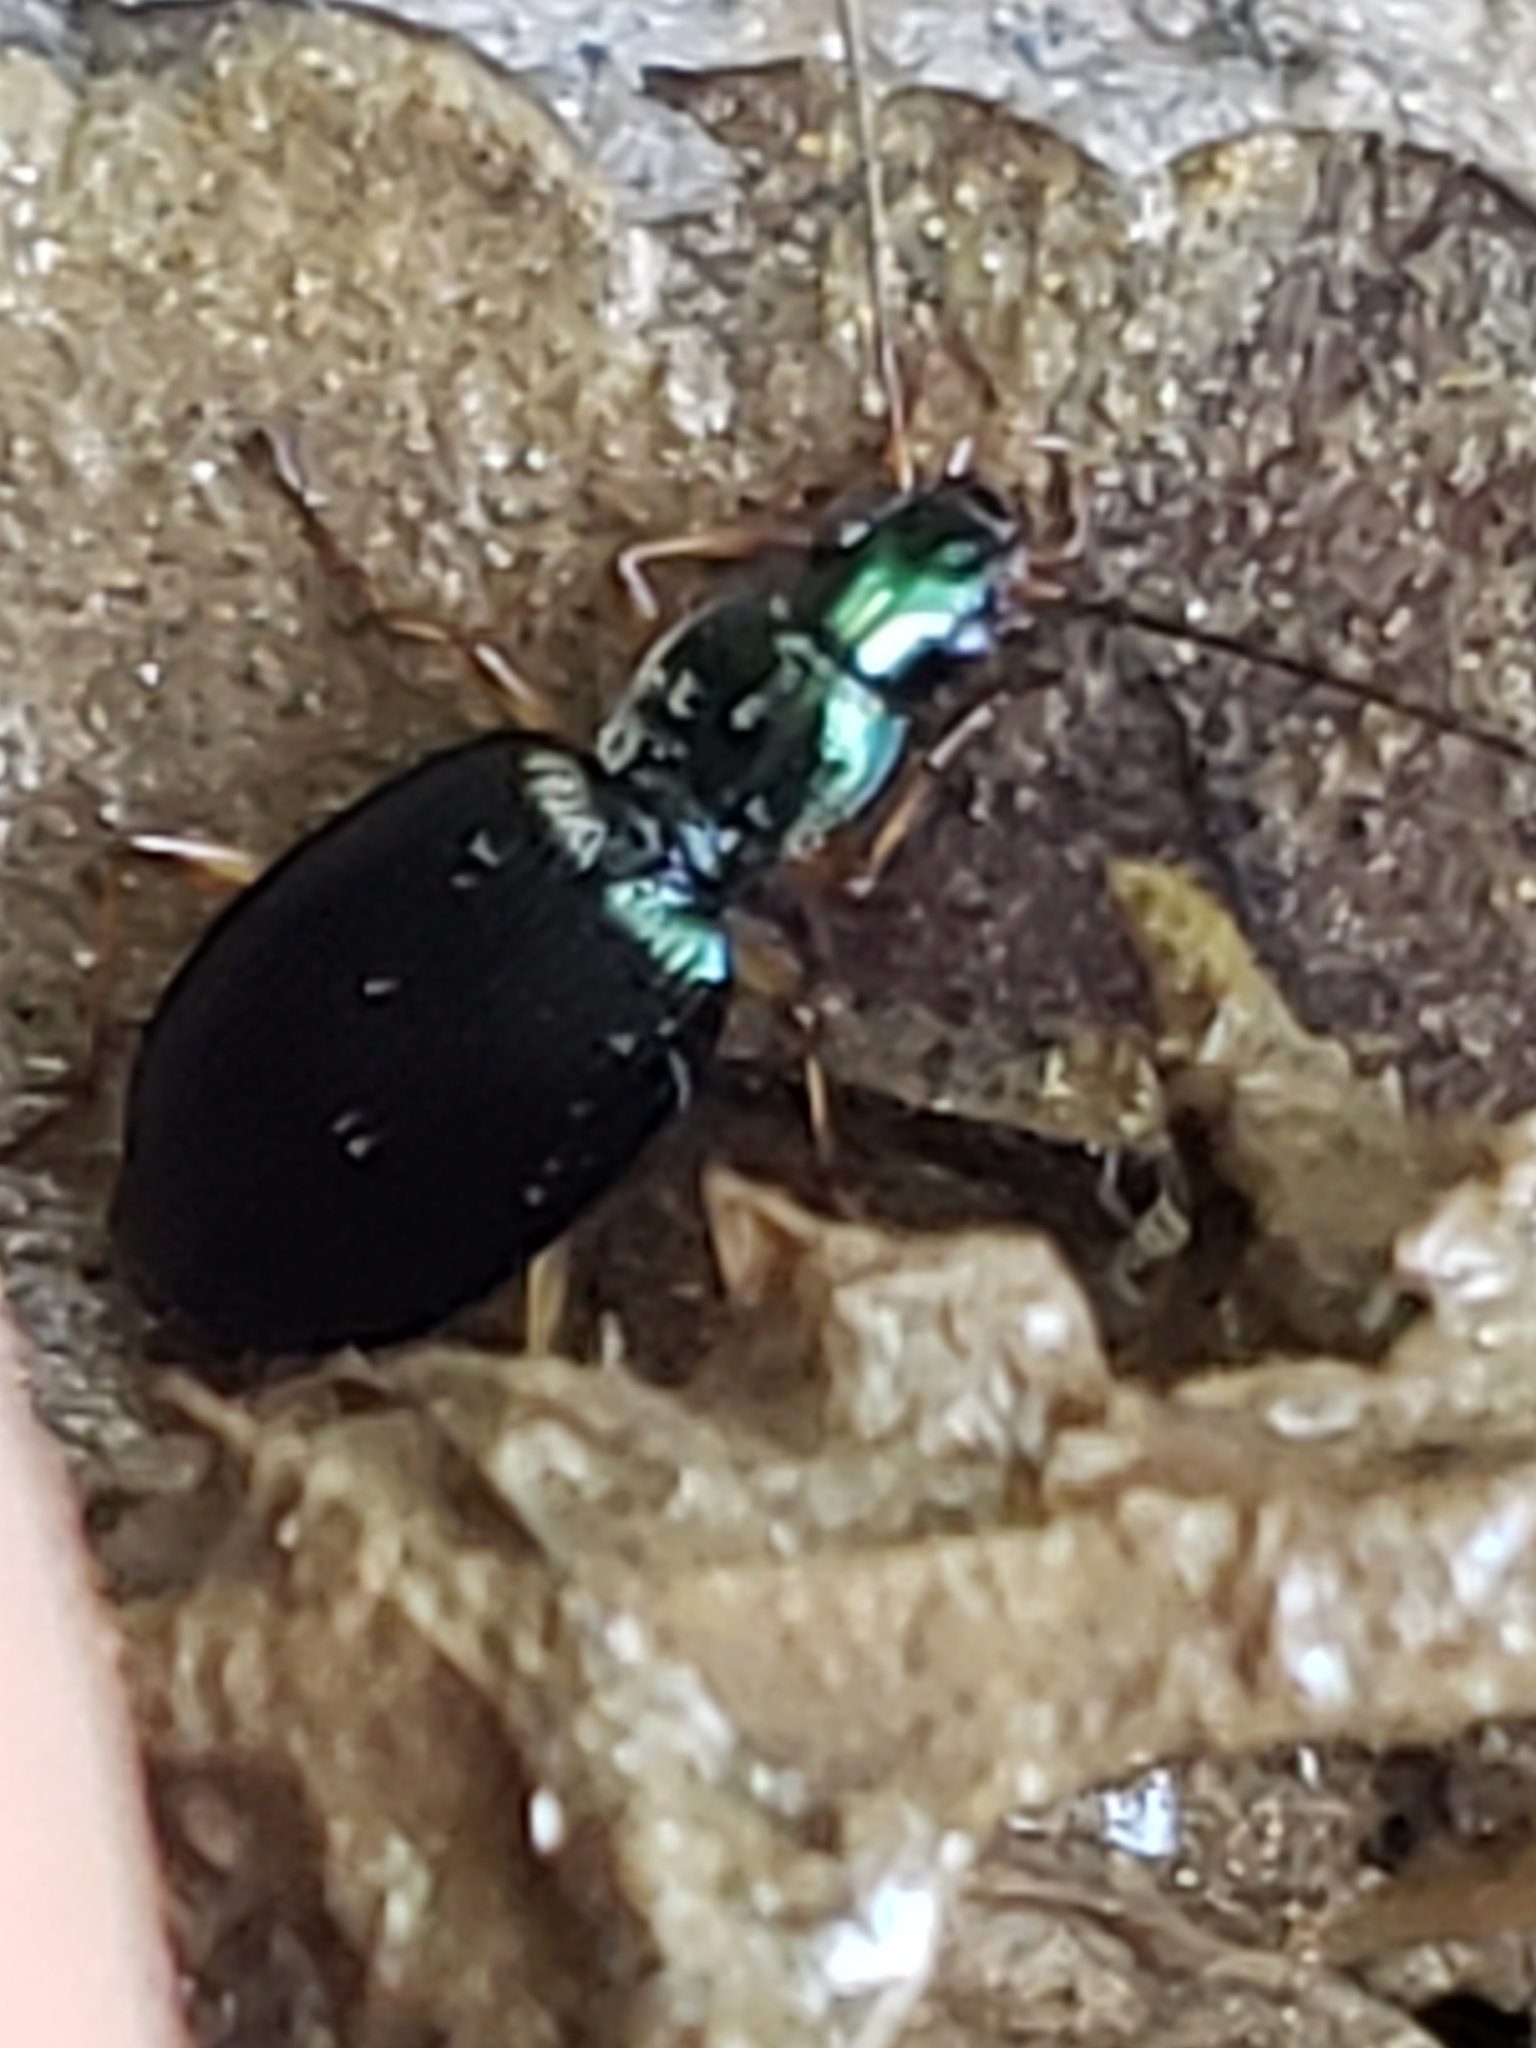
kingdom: Animalia
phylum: Arthropoda
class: Insecta
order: Coleoptera
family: Carabidae
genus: Agonum
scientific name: Agonum extensicolle
